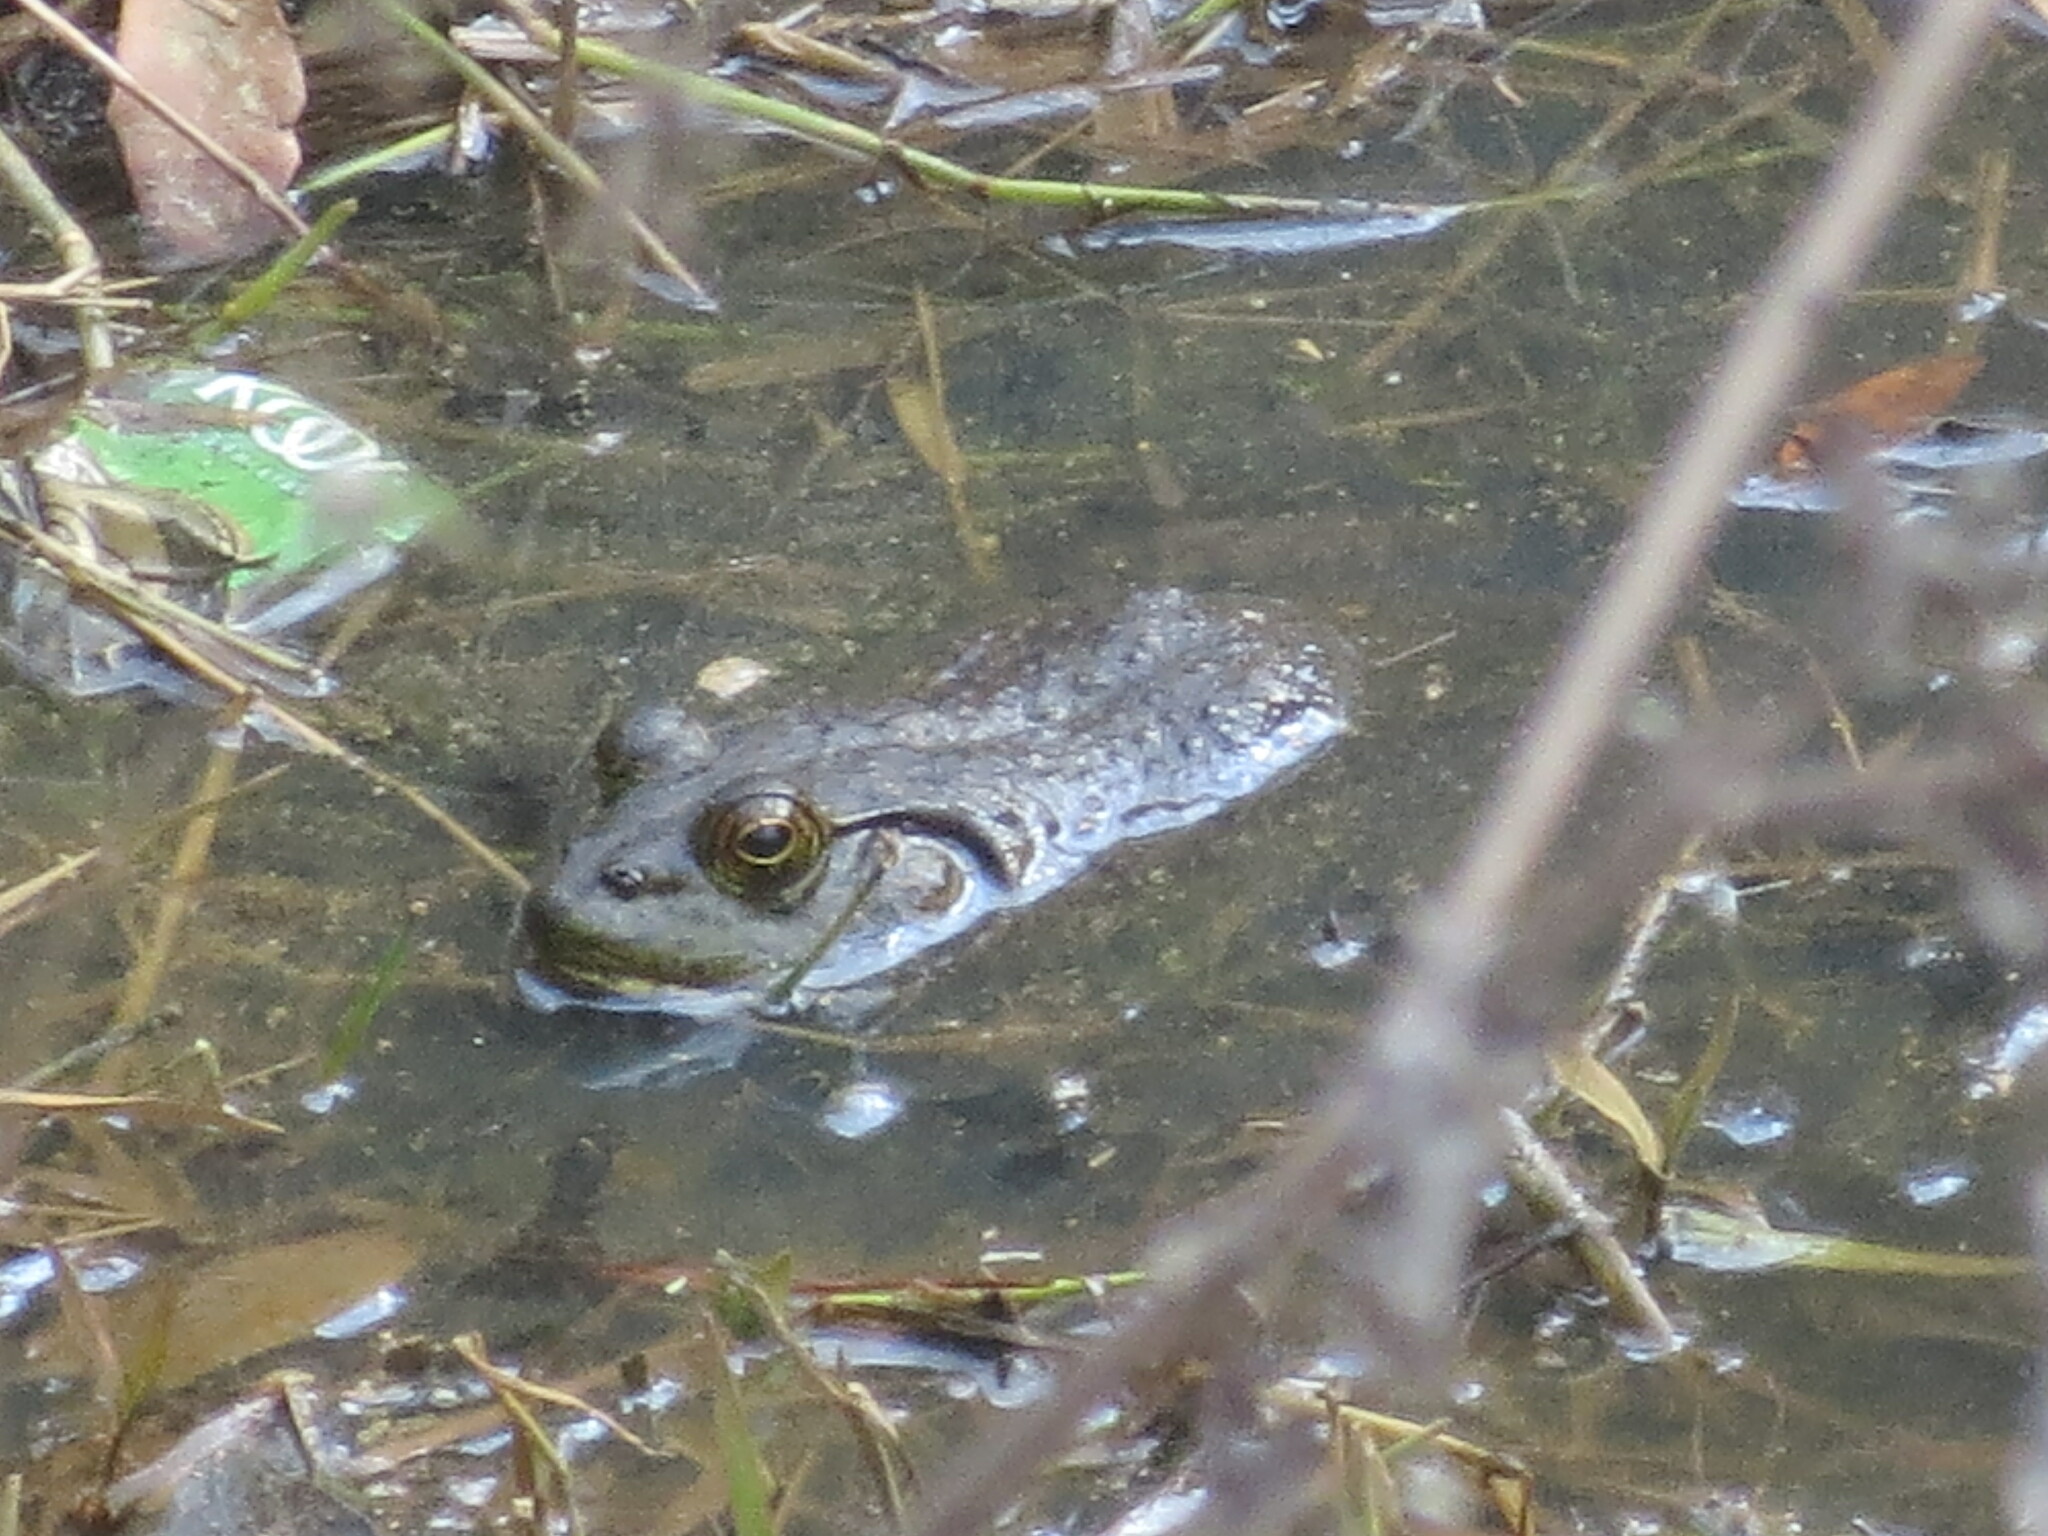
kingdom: Animalia
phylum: Chordata
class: Amphibia
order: Anura
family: Ranidae
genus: Lithobates
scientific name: Lithobates catesbeianus
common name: American bullfrog
